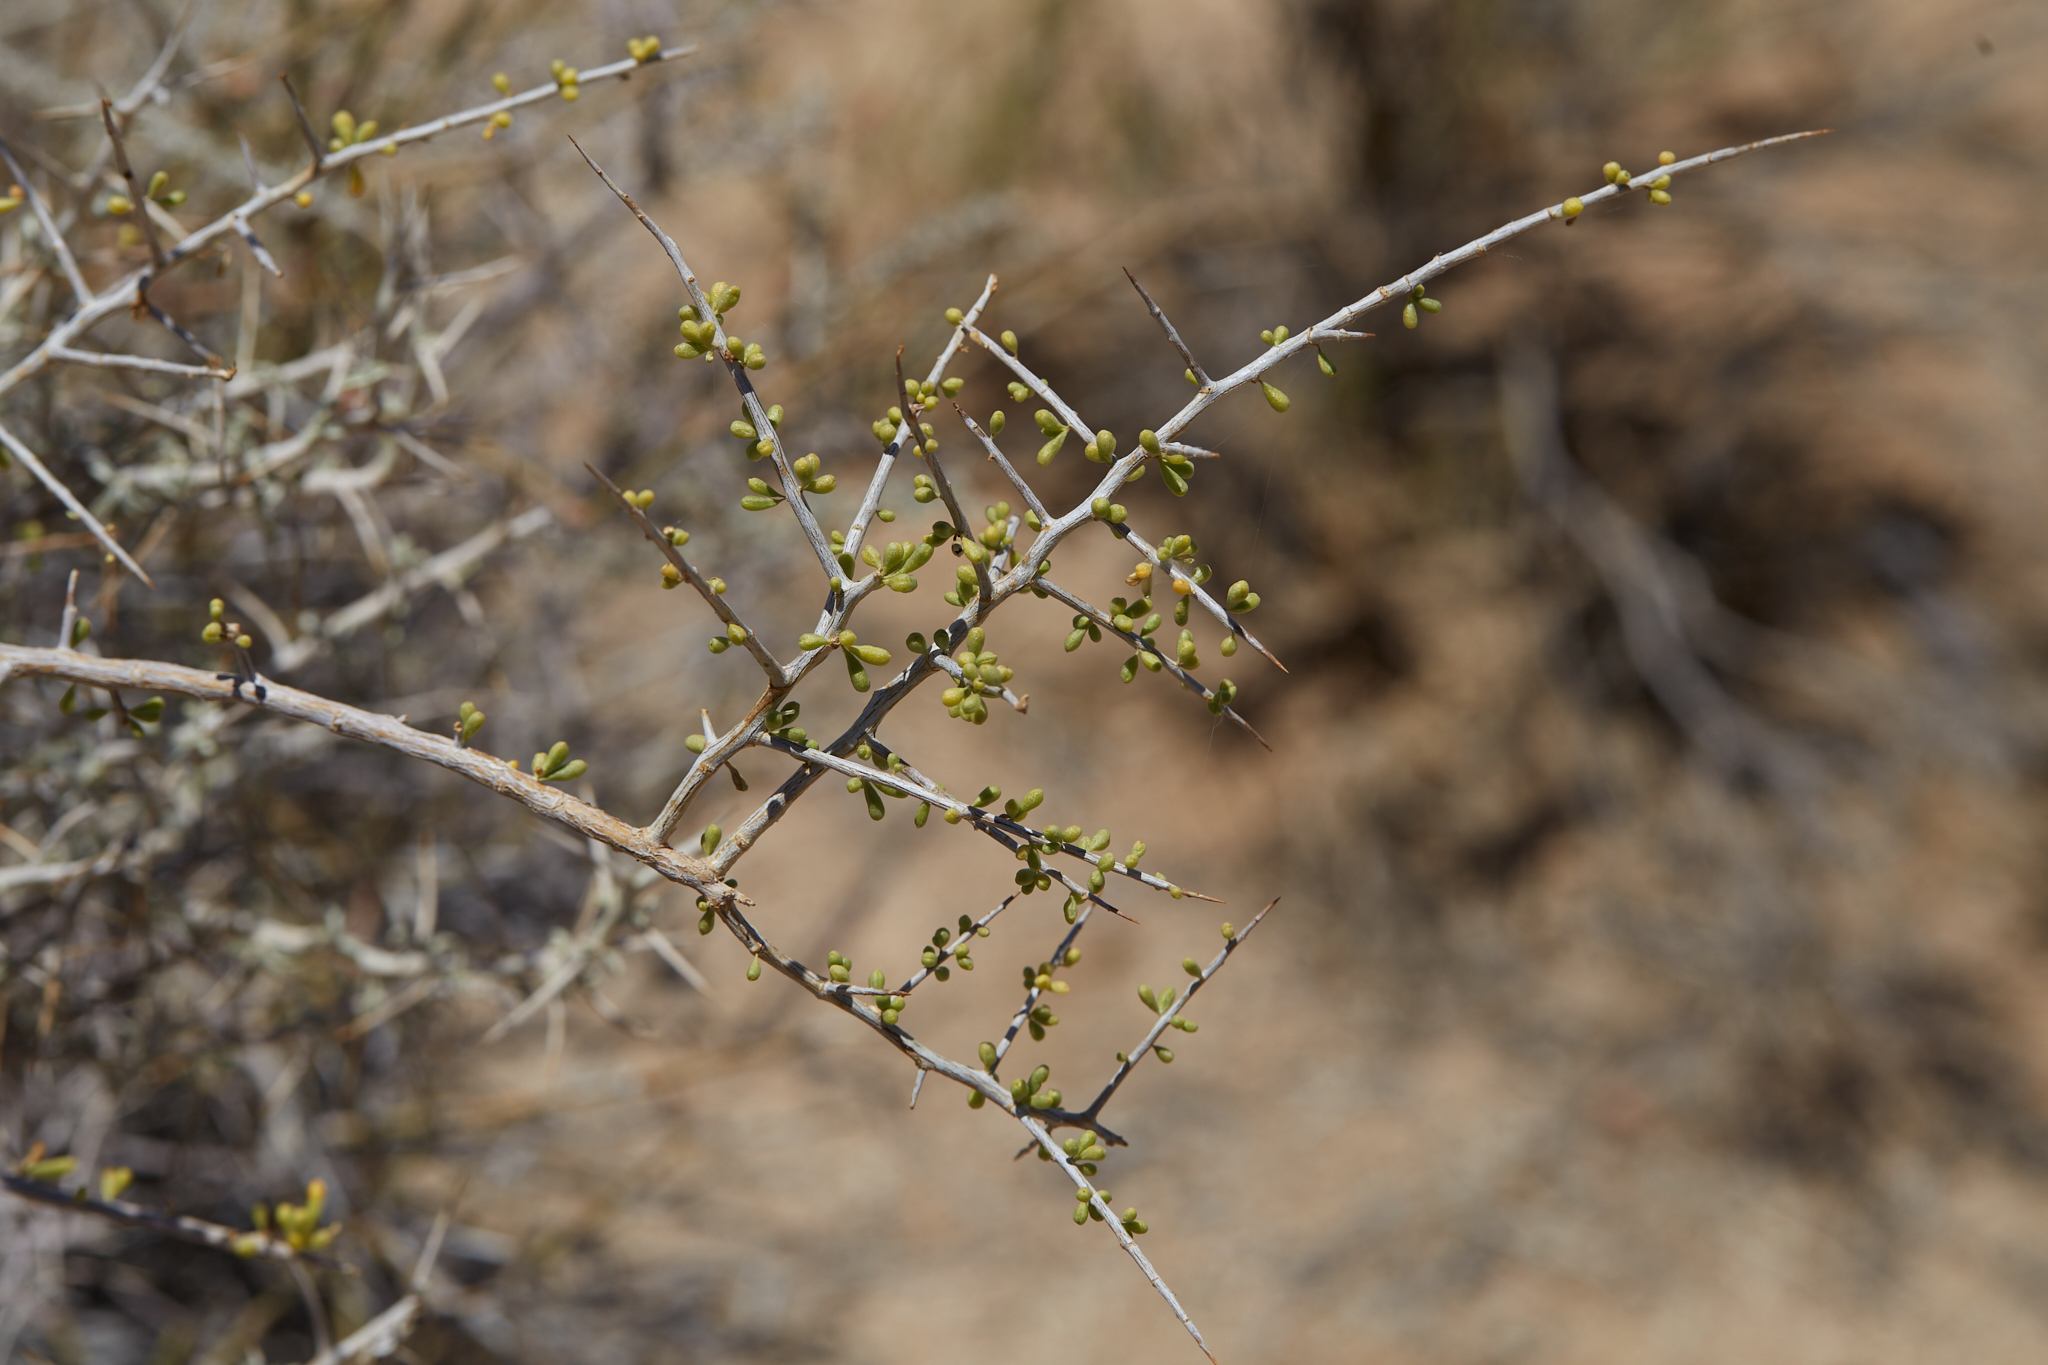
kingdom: Plantae
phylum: Tracheophyta
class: Magnoliopsida
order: Solanales
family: Solanaceae
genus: Lycium
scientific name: Lycium andersonii
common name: Water-jacket
